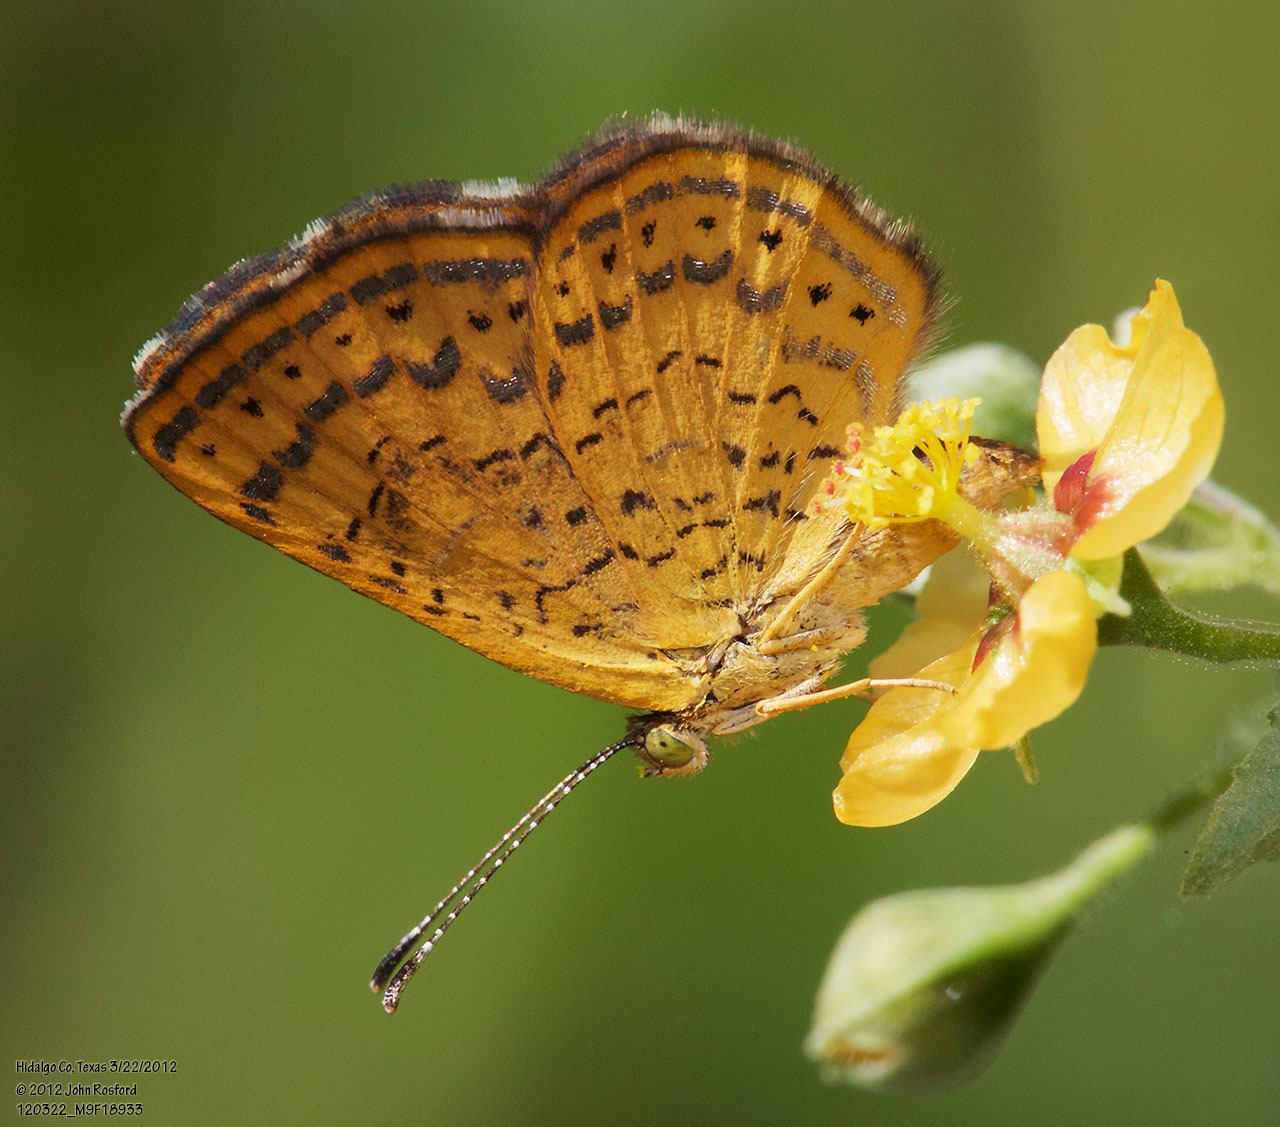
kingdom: Animalia
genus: Calephelis
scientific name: Calephelis nemesis
